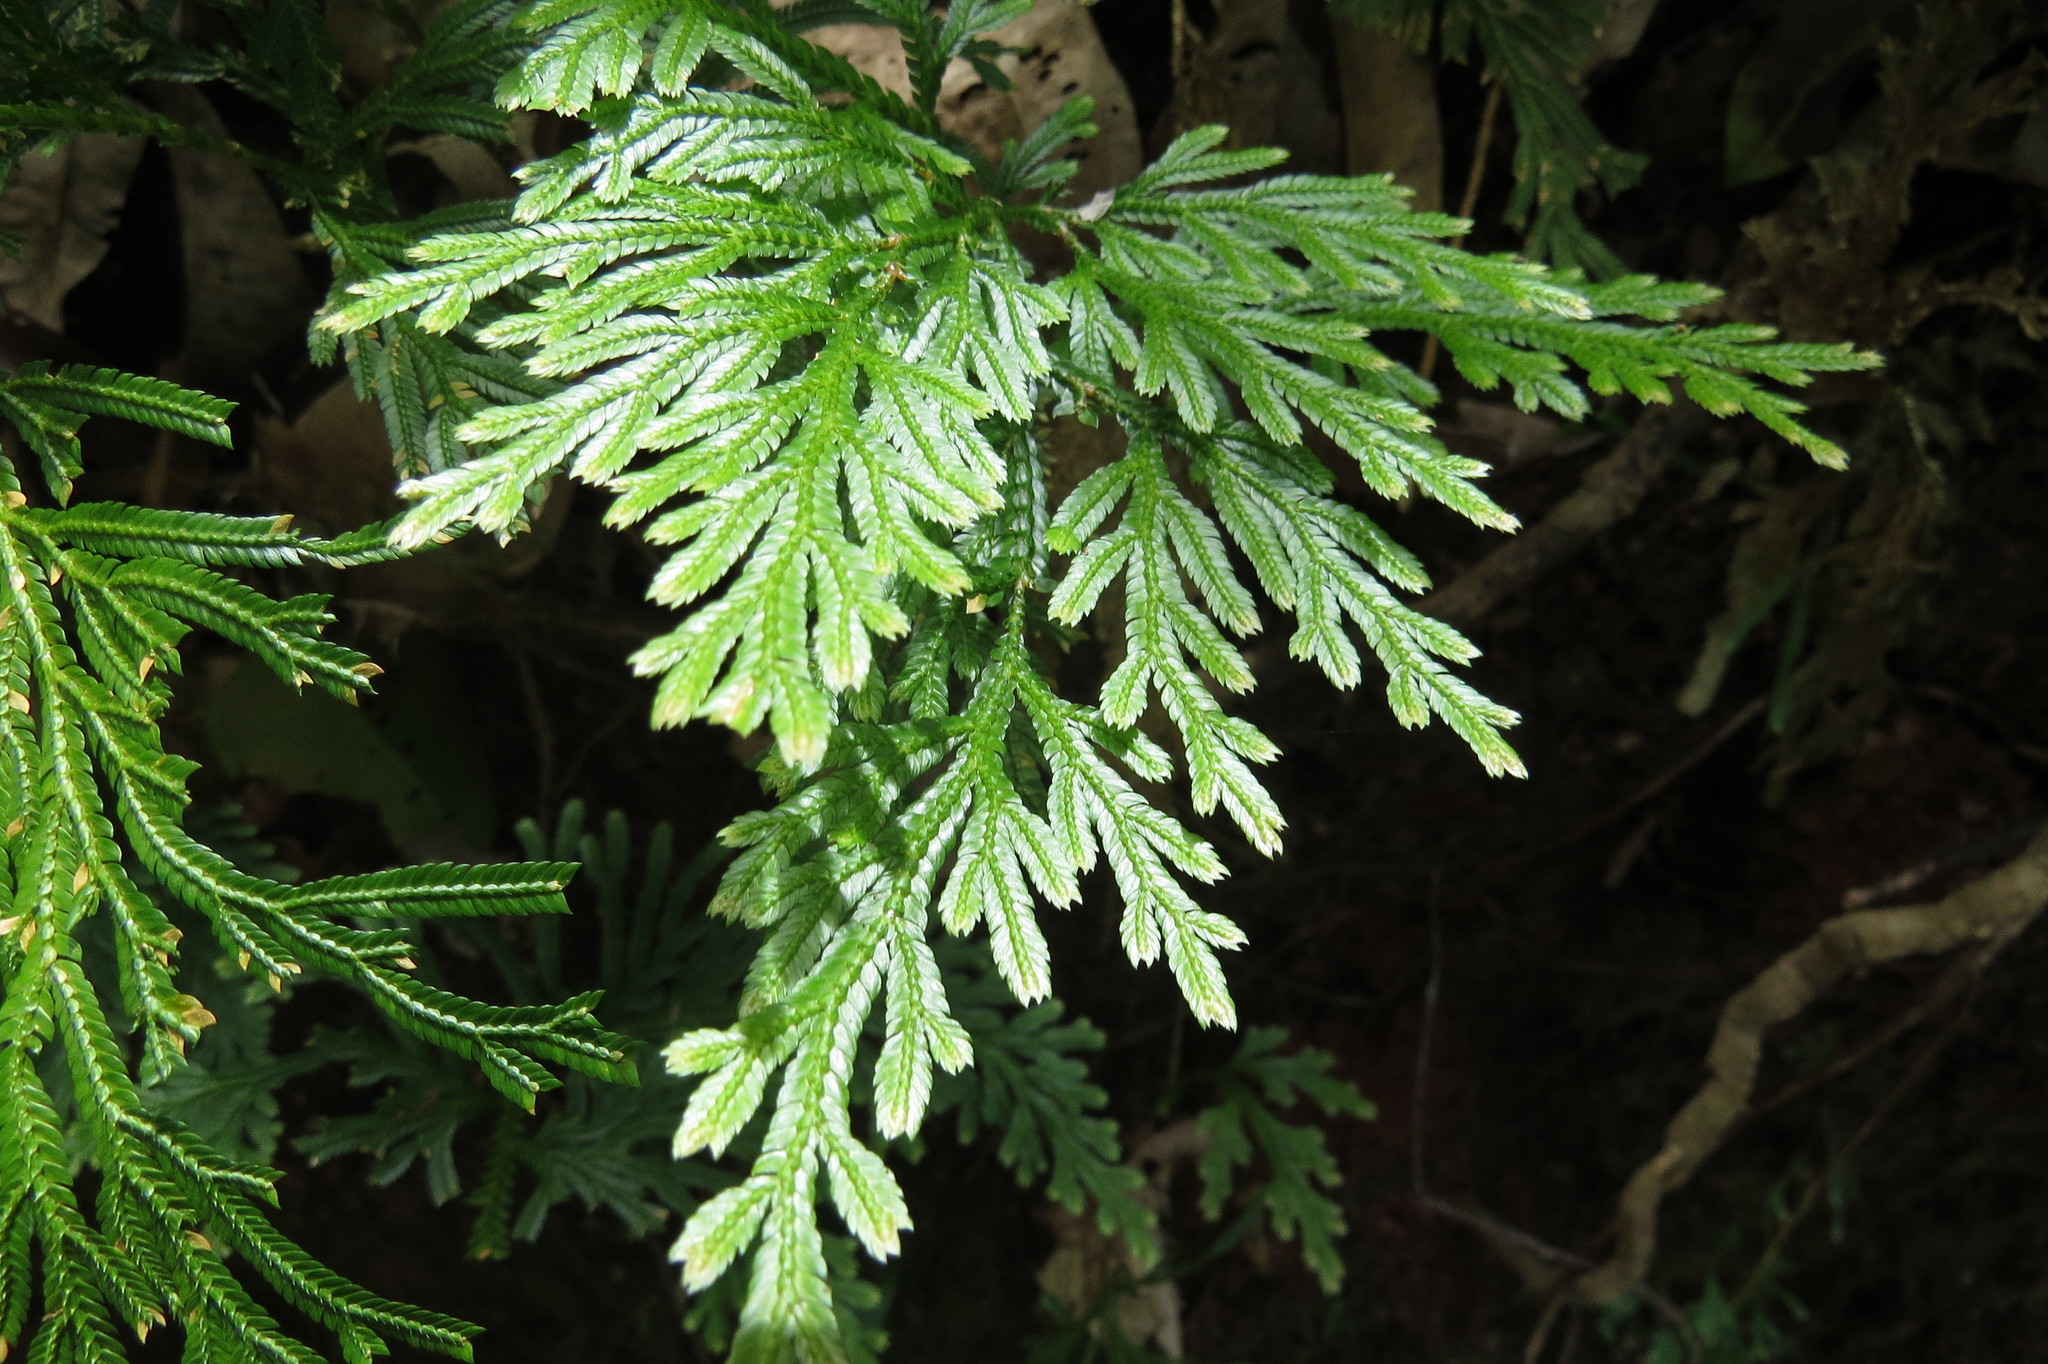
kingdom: Plantae
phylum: Tracheophyta
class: Lycopodiopsida
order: Selaginellales
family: Selaginellaceae
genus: Selaginella
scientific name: Selaginella longipinna
